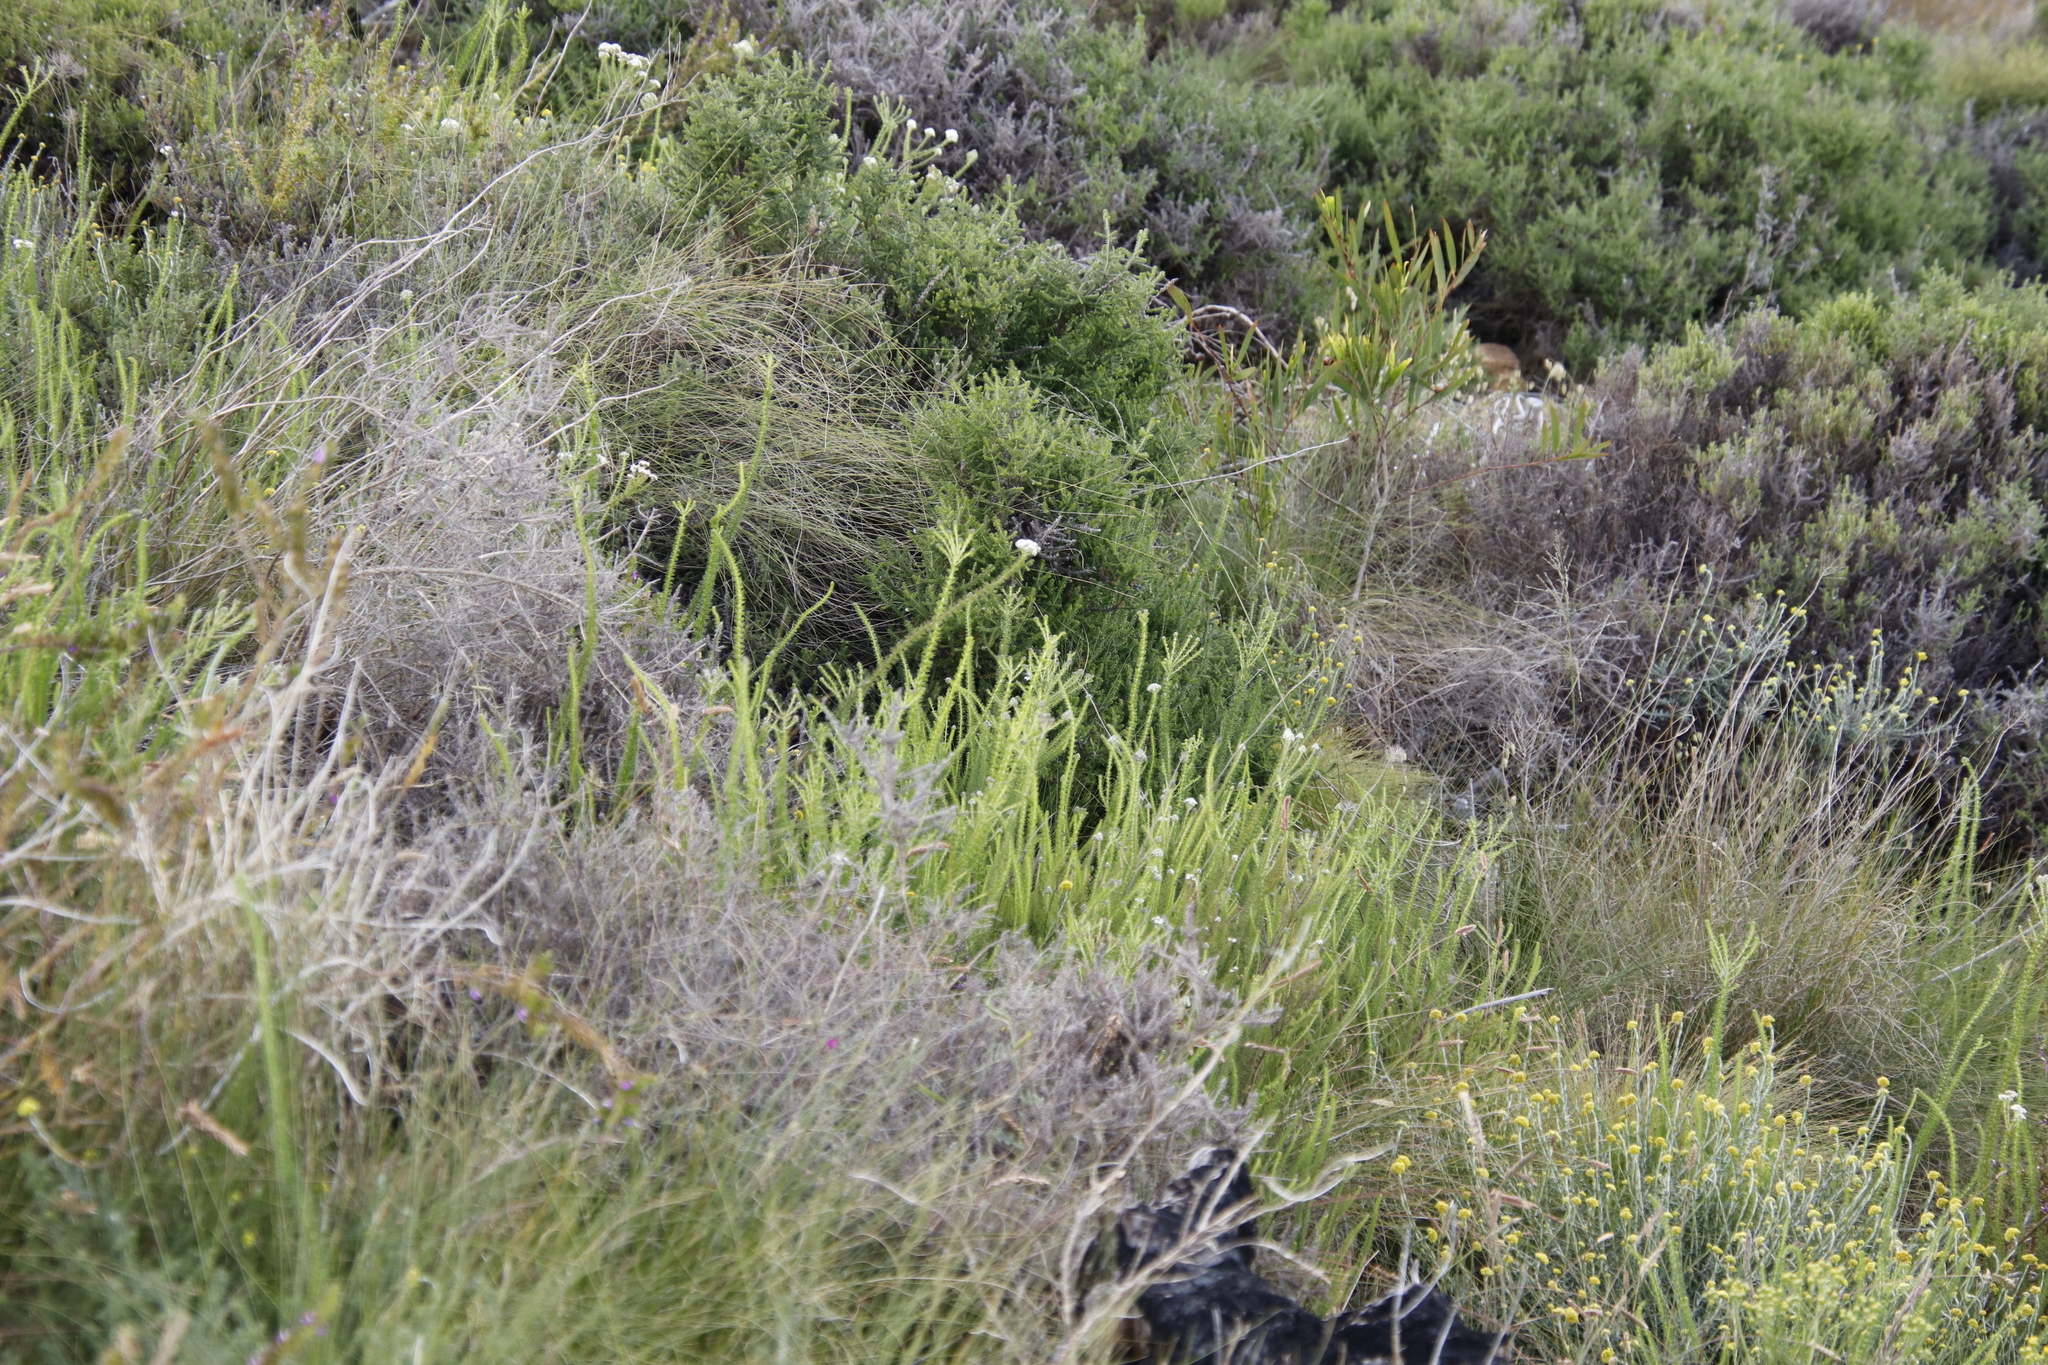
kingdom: Plantae
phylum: Tracheophyta
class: Magnoliopsida
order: Lamiales
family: Scrophulariaceae
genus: Selago
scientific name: Selago corymbosa
